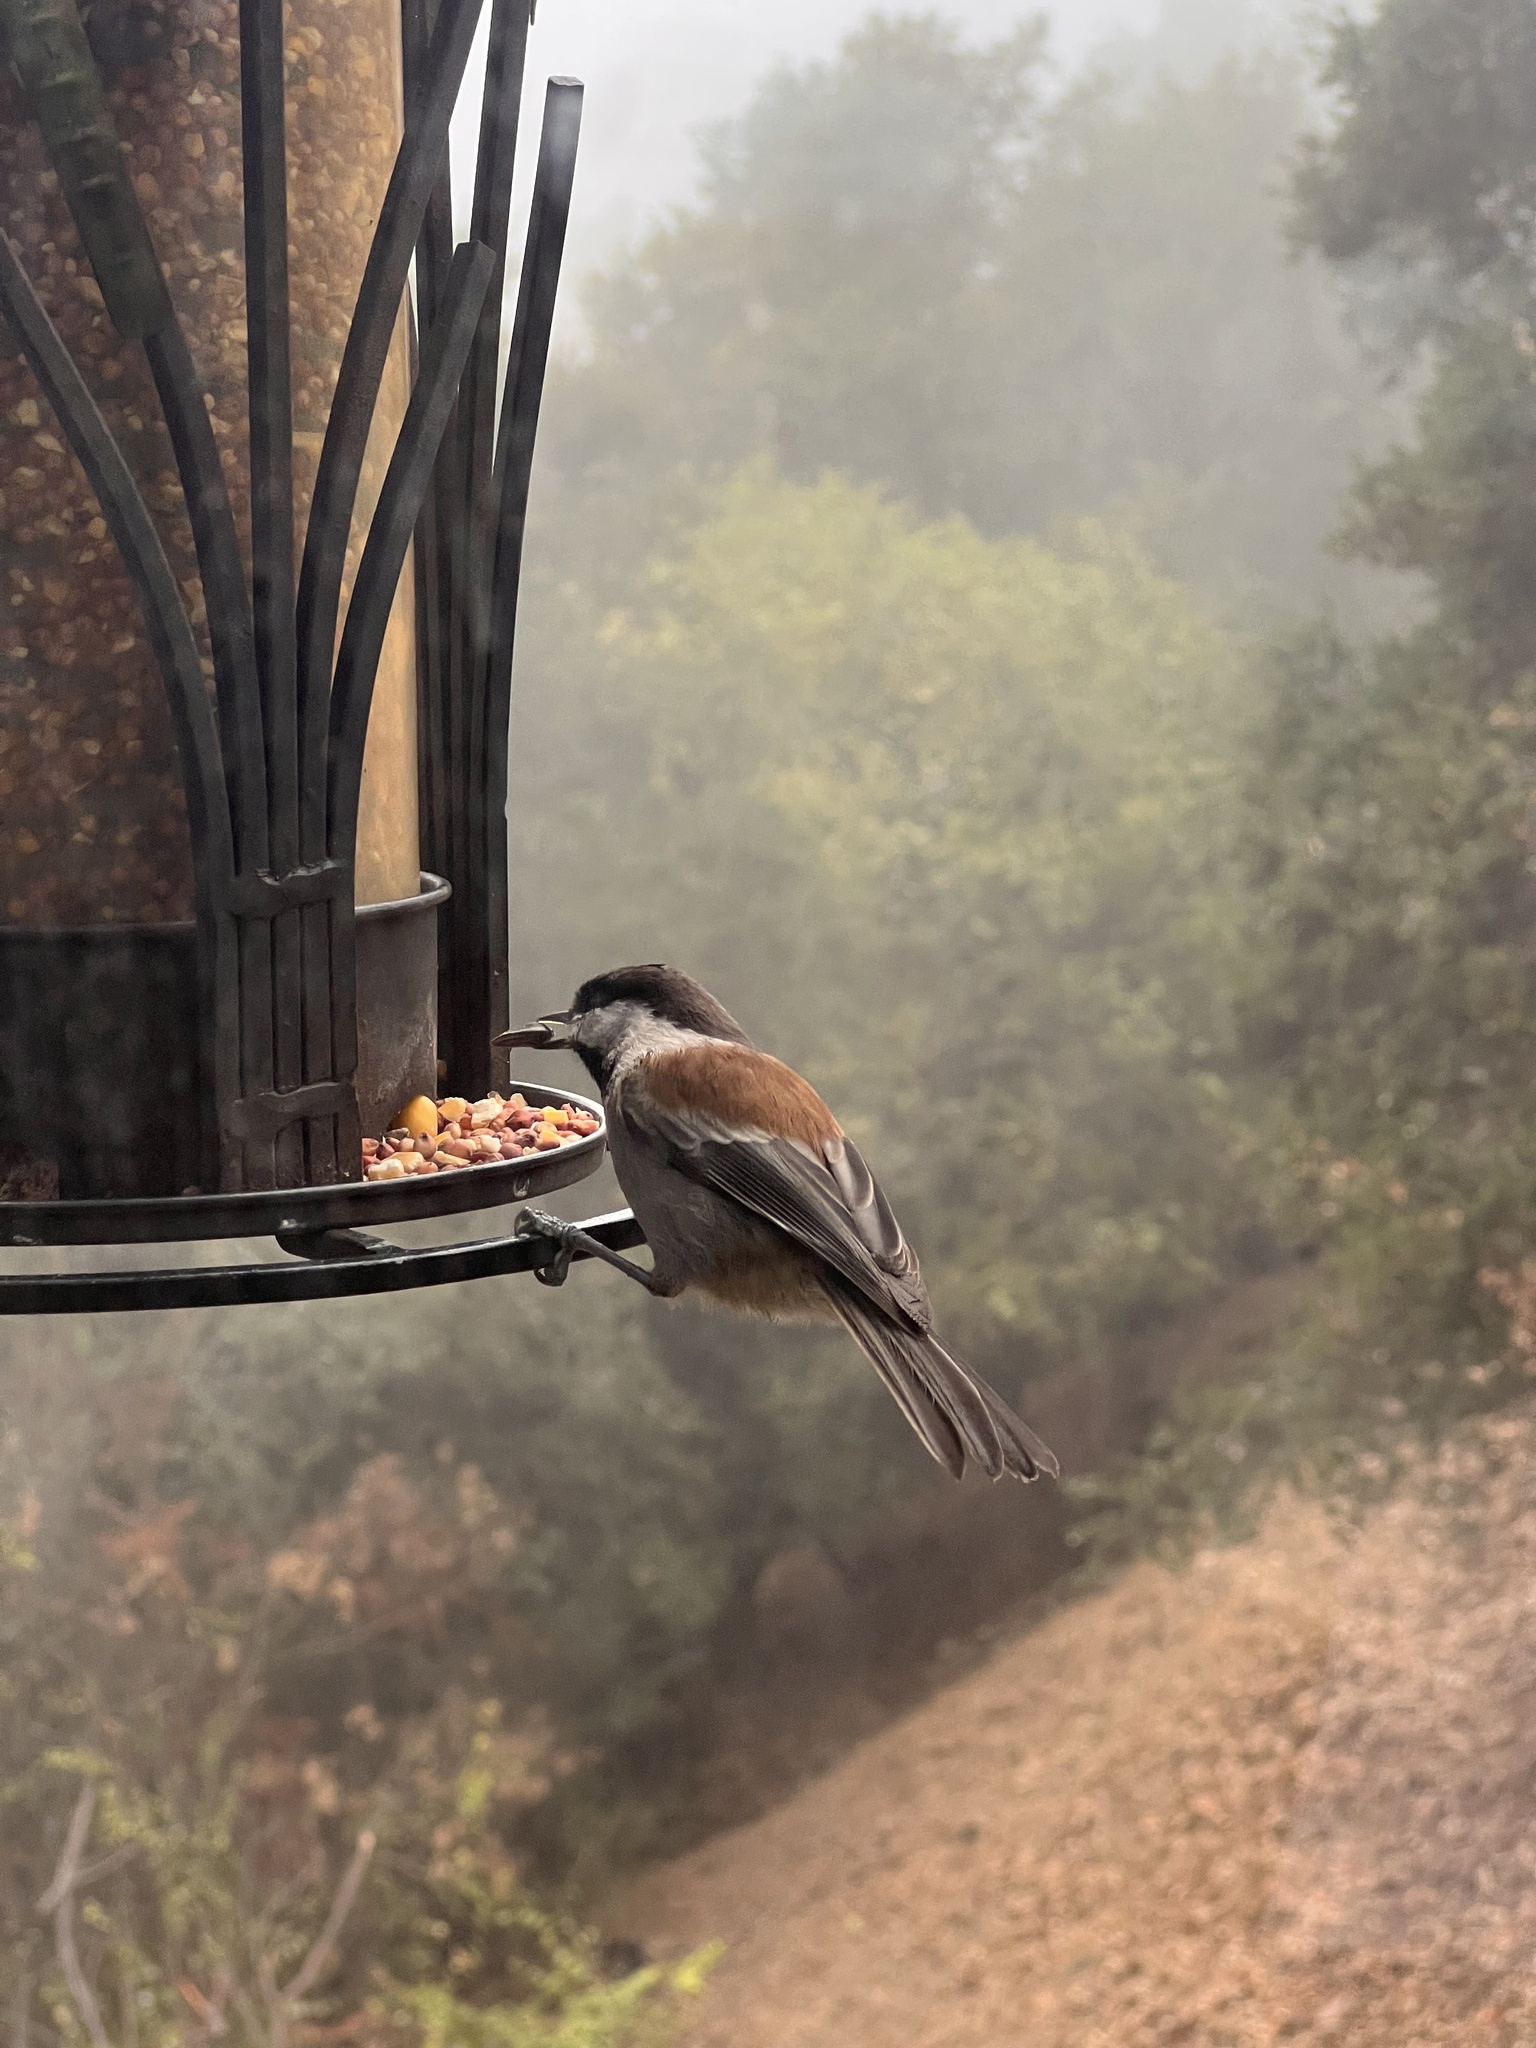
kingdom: Animalia
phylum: Chordata
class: Aves
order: Passeriformes
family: Paridae
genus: Poecile
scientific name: Poecile rufescens
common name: Chestnut-backed chickadee
